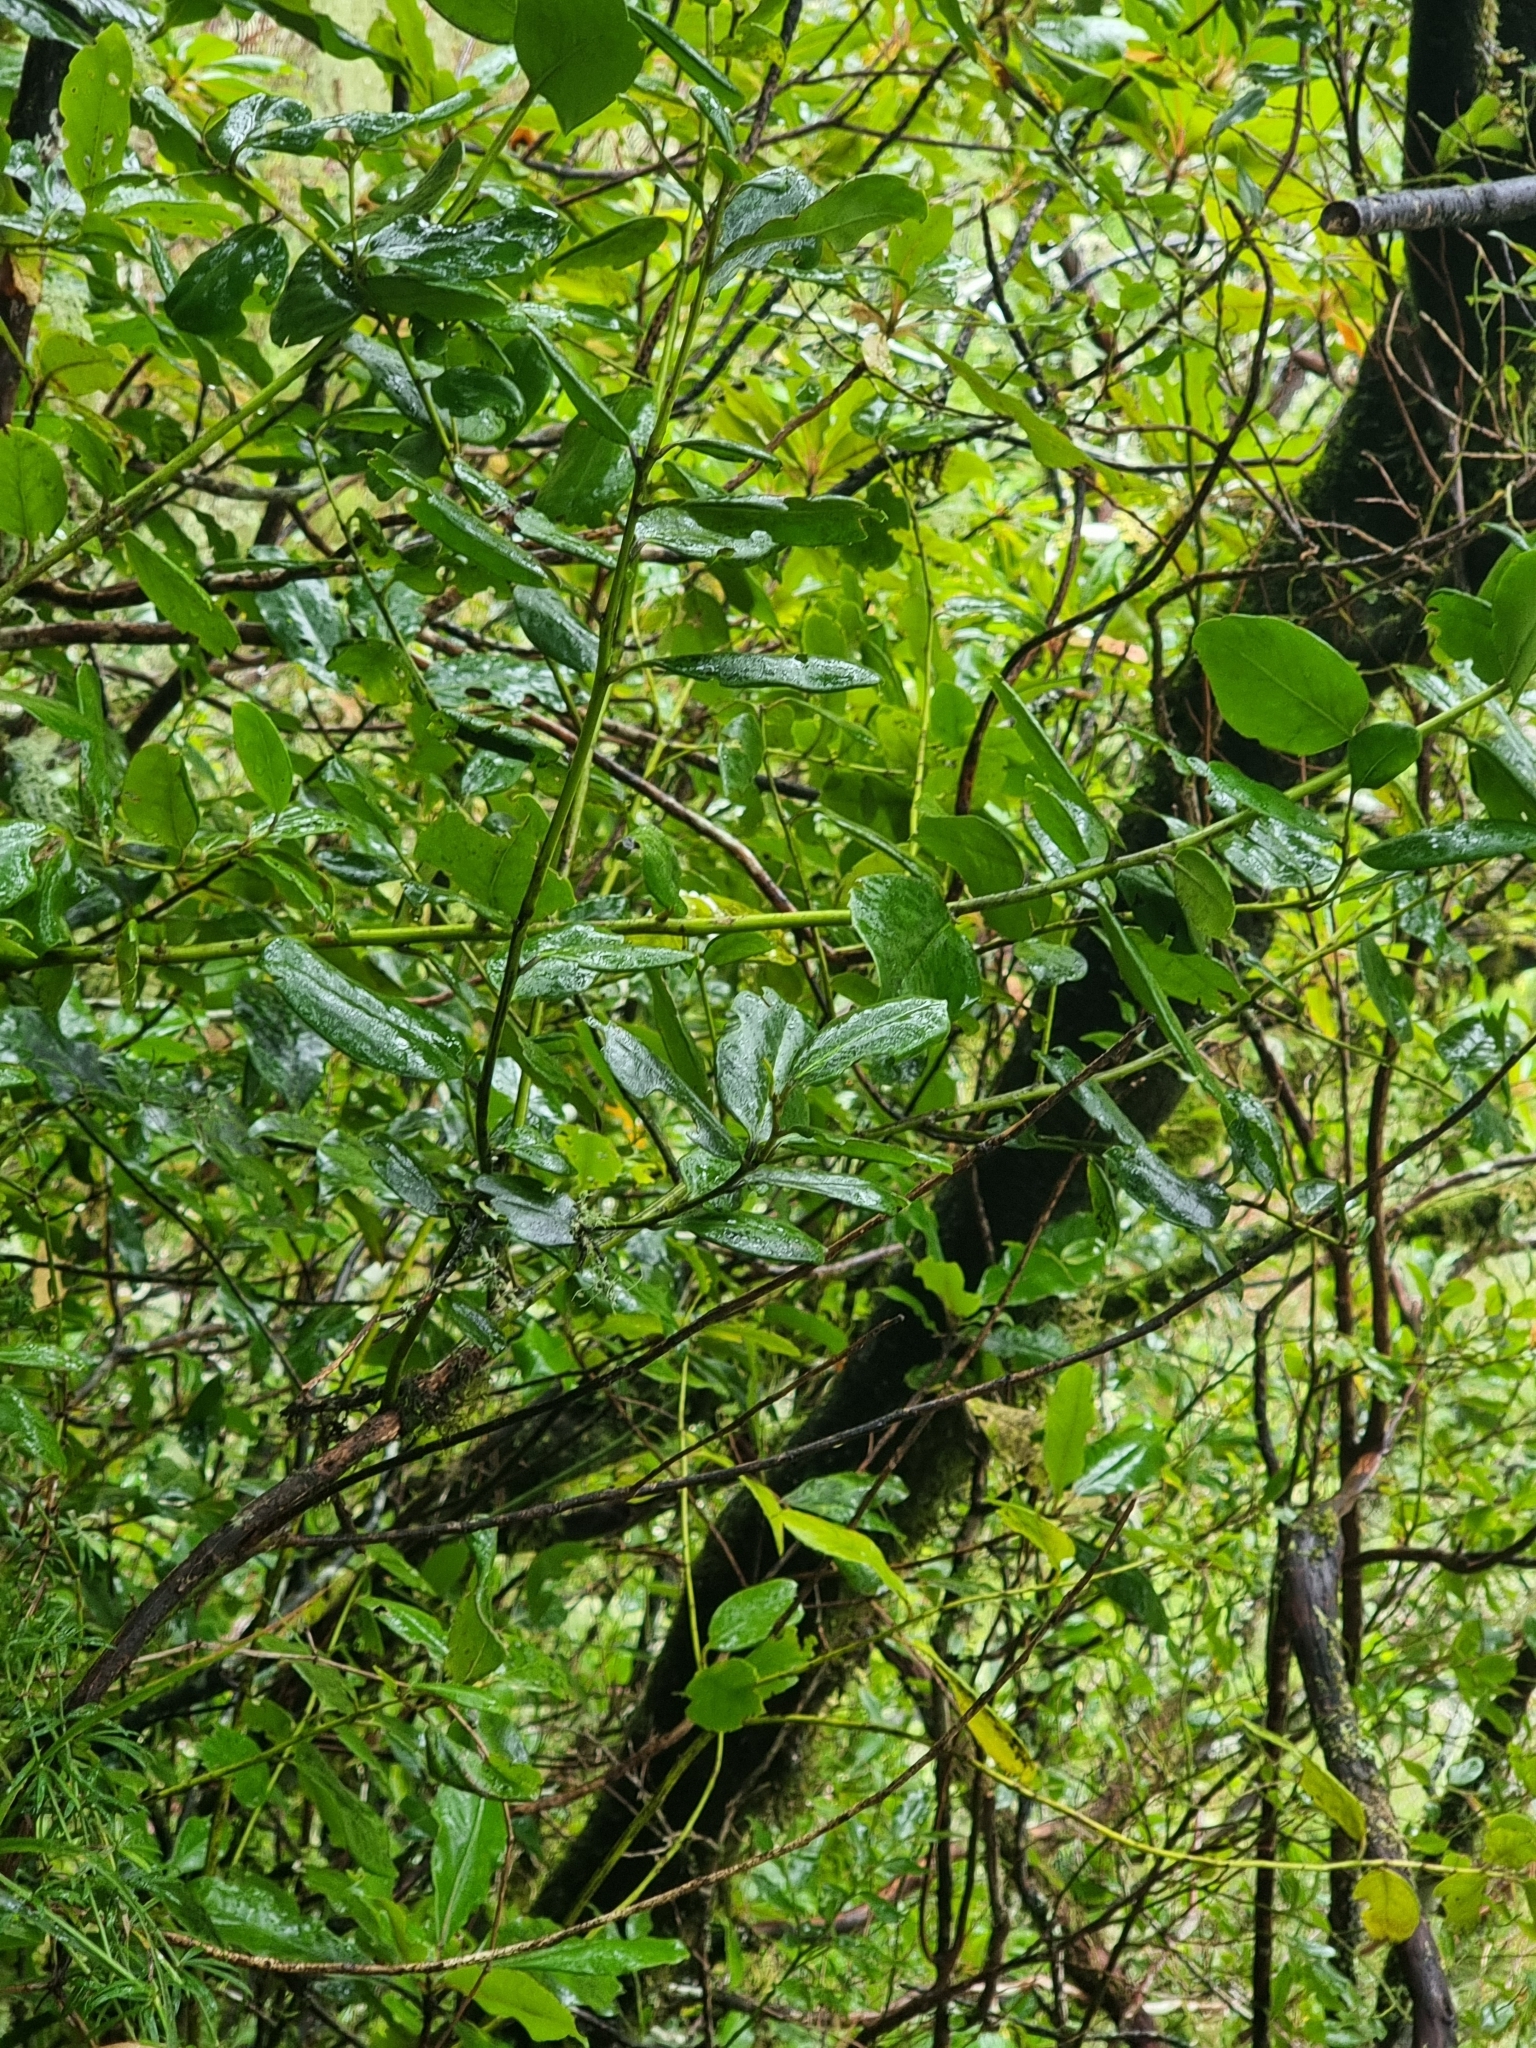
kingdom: Plantae
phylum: Tracheophyta
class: Magnoliopsida
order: Aquifoliales
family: Aquifoliaceae
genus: Ilex
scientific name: Ilex perado
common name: Madeira holly
